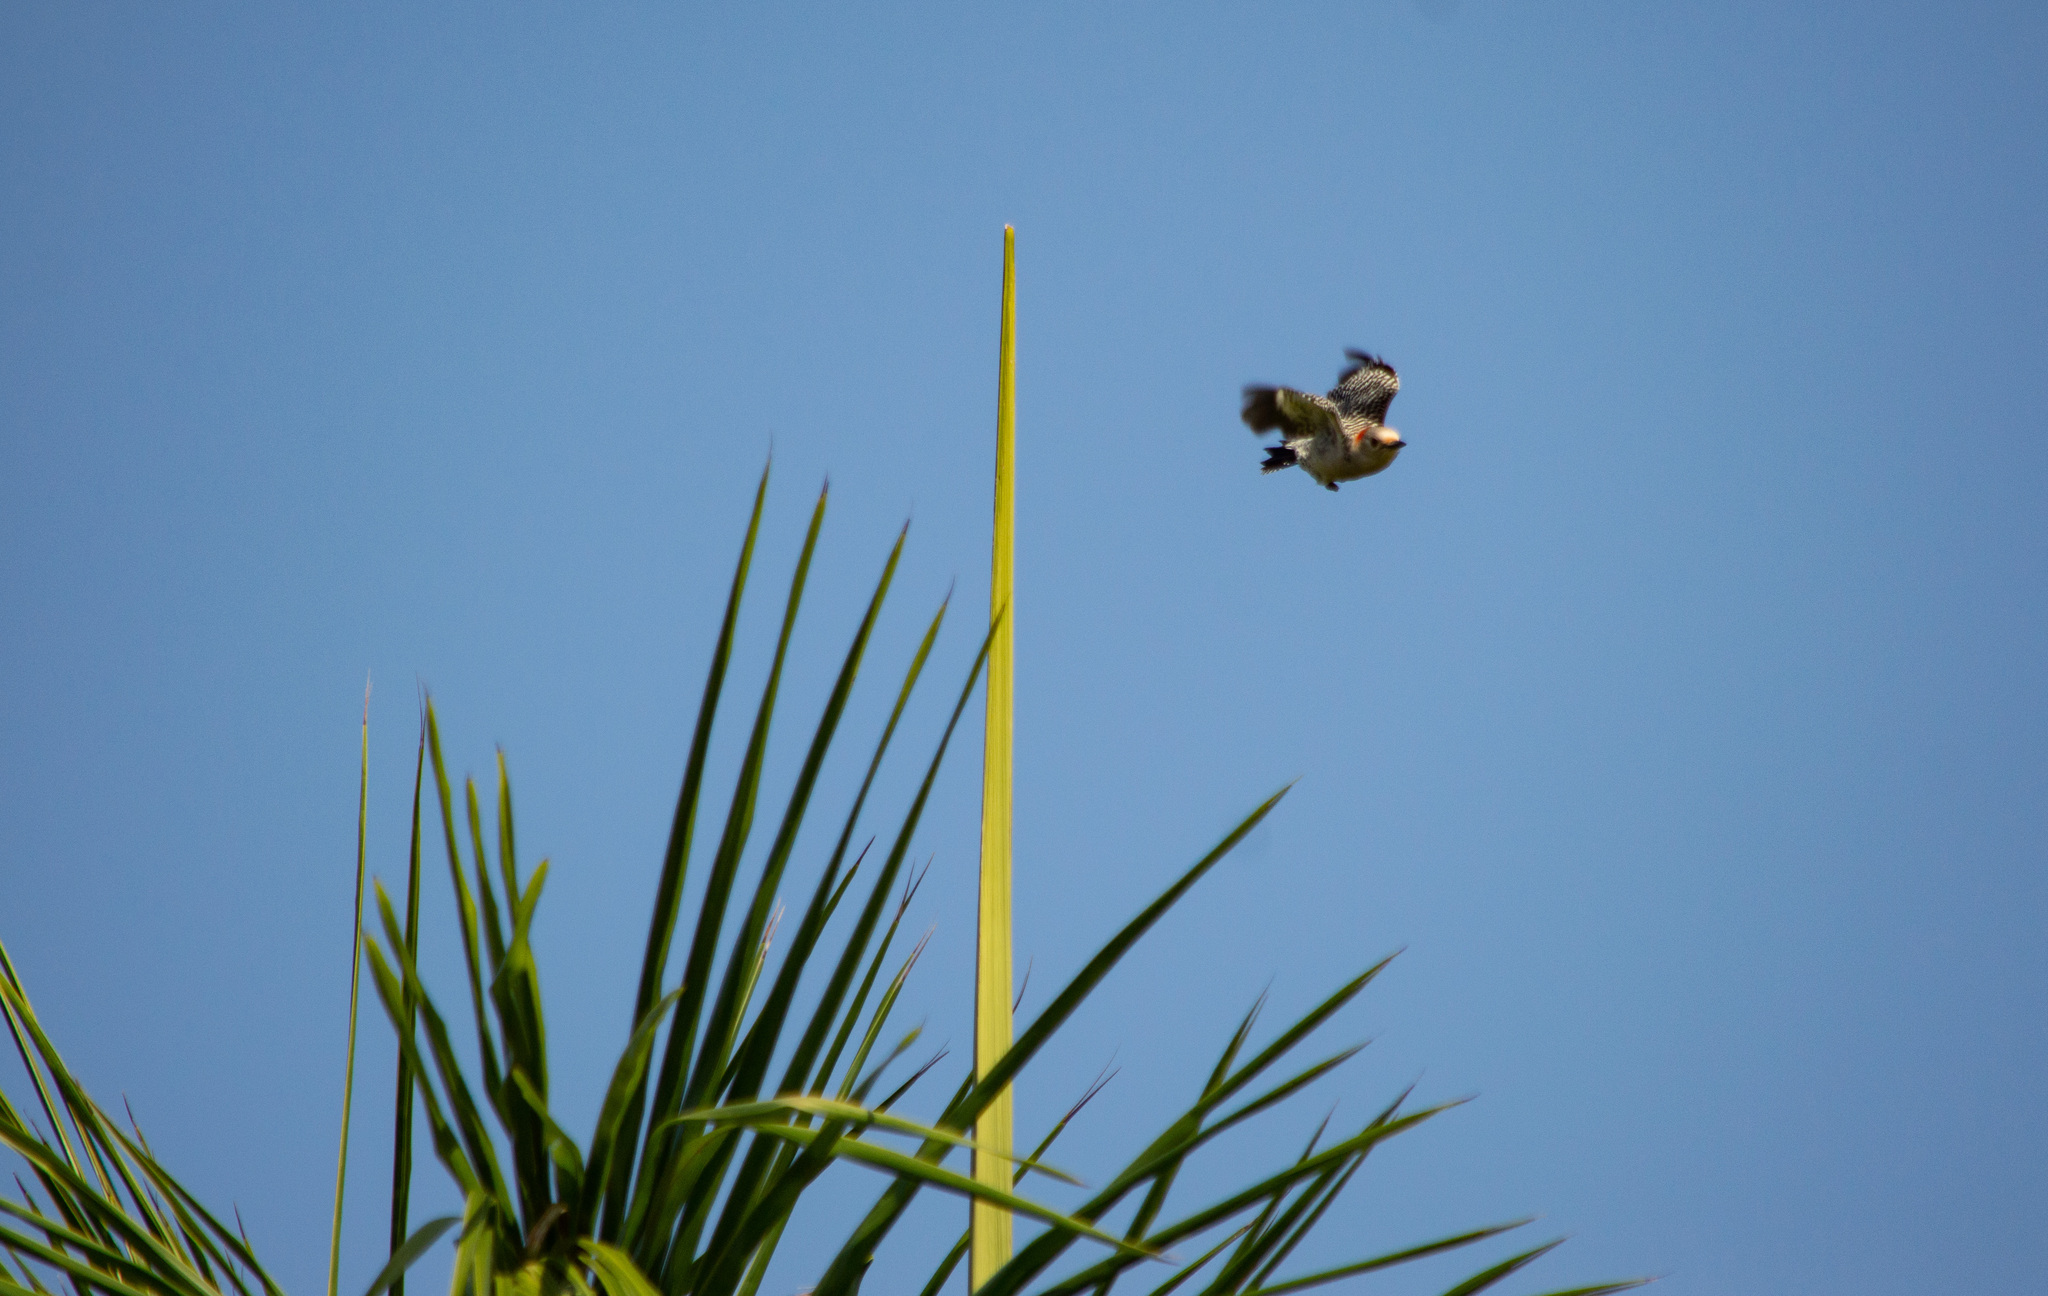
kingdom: Animalia
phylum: Chordata
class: Aves
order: Piciformes
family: Picidae
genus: Melanerpes
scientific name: Melanerpes carolinus
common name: Red-bellied woodpecker
